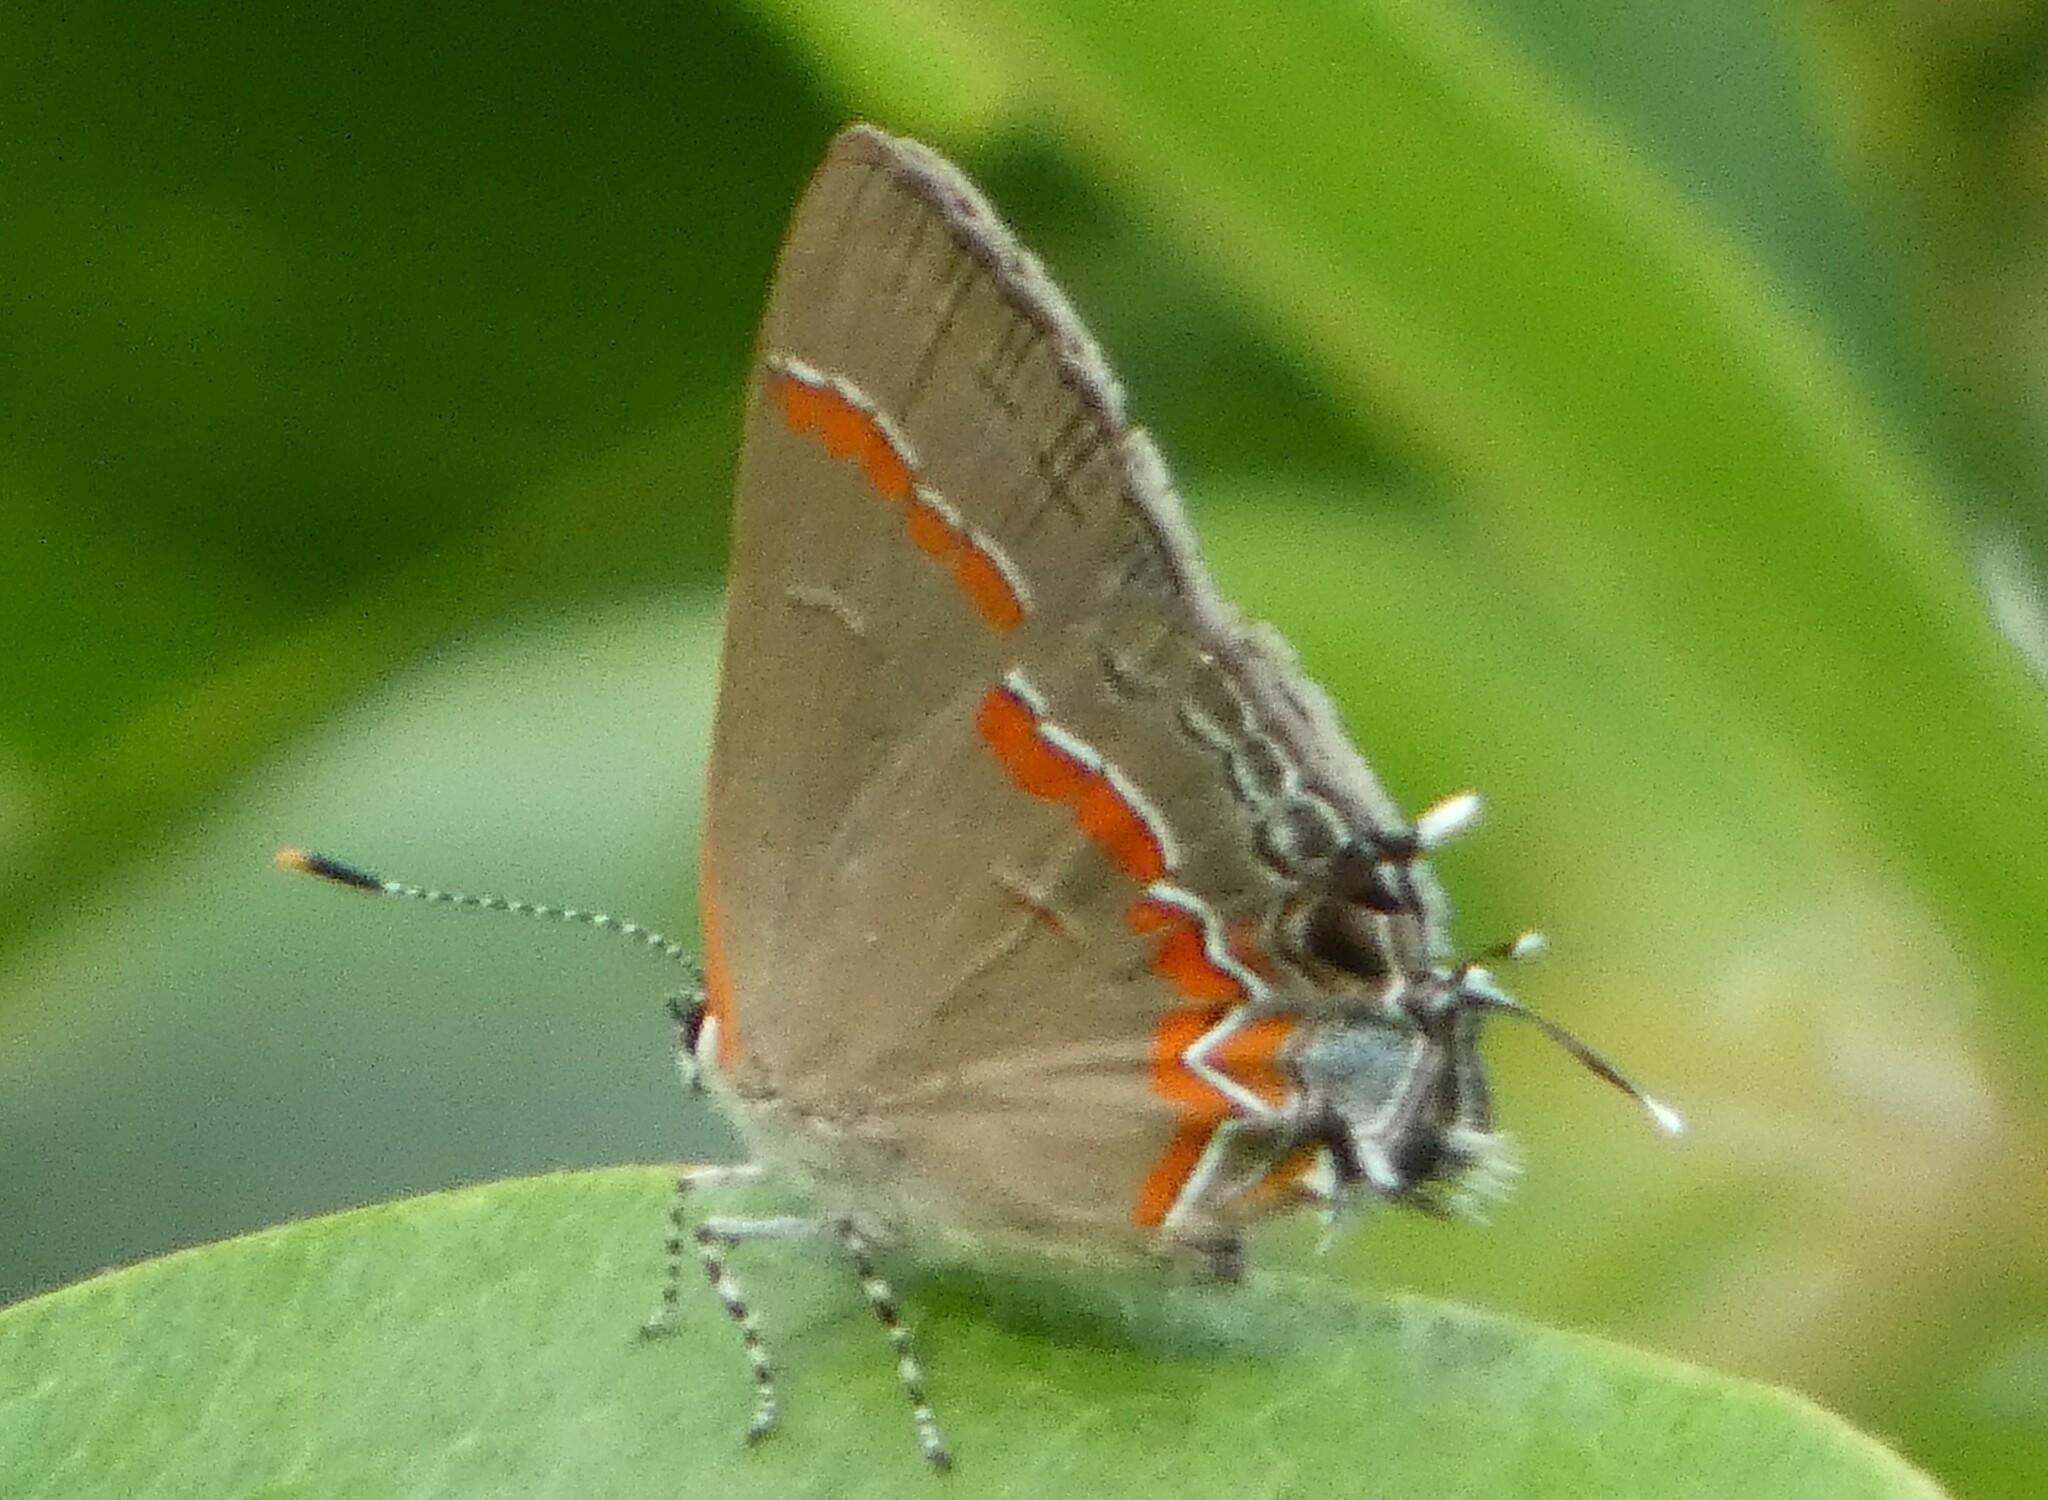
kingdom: Animalia
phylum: Arthropoda
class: Insecta
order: Lepidoptera
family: Lycaenidae
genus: Calycopis
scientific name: Calycopis cecrops
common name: Red-banded hairstreak
